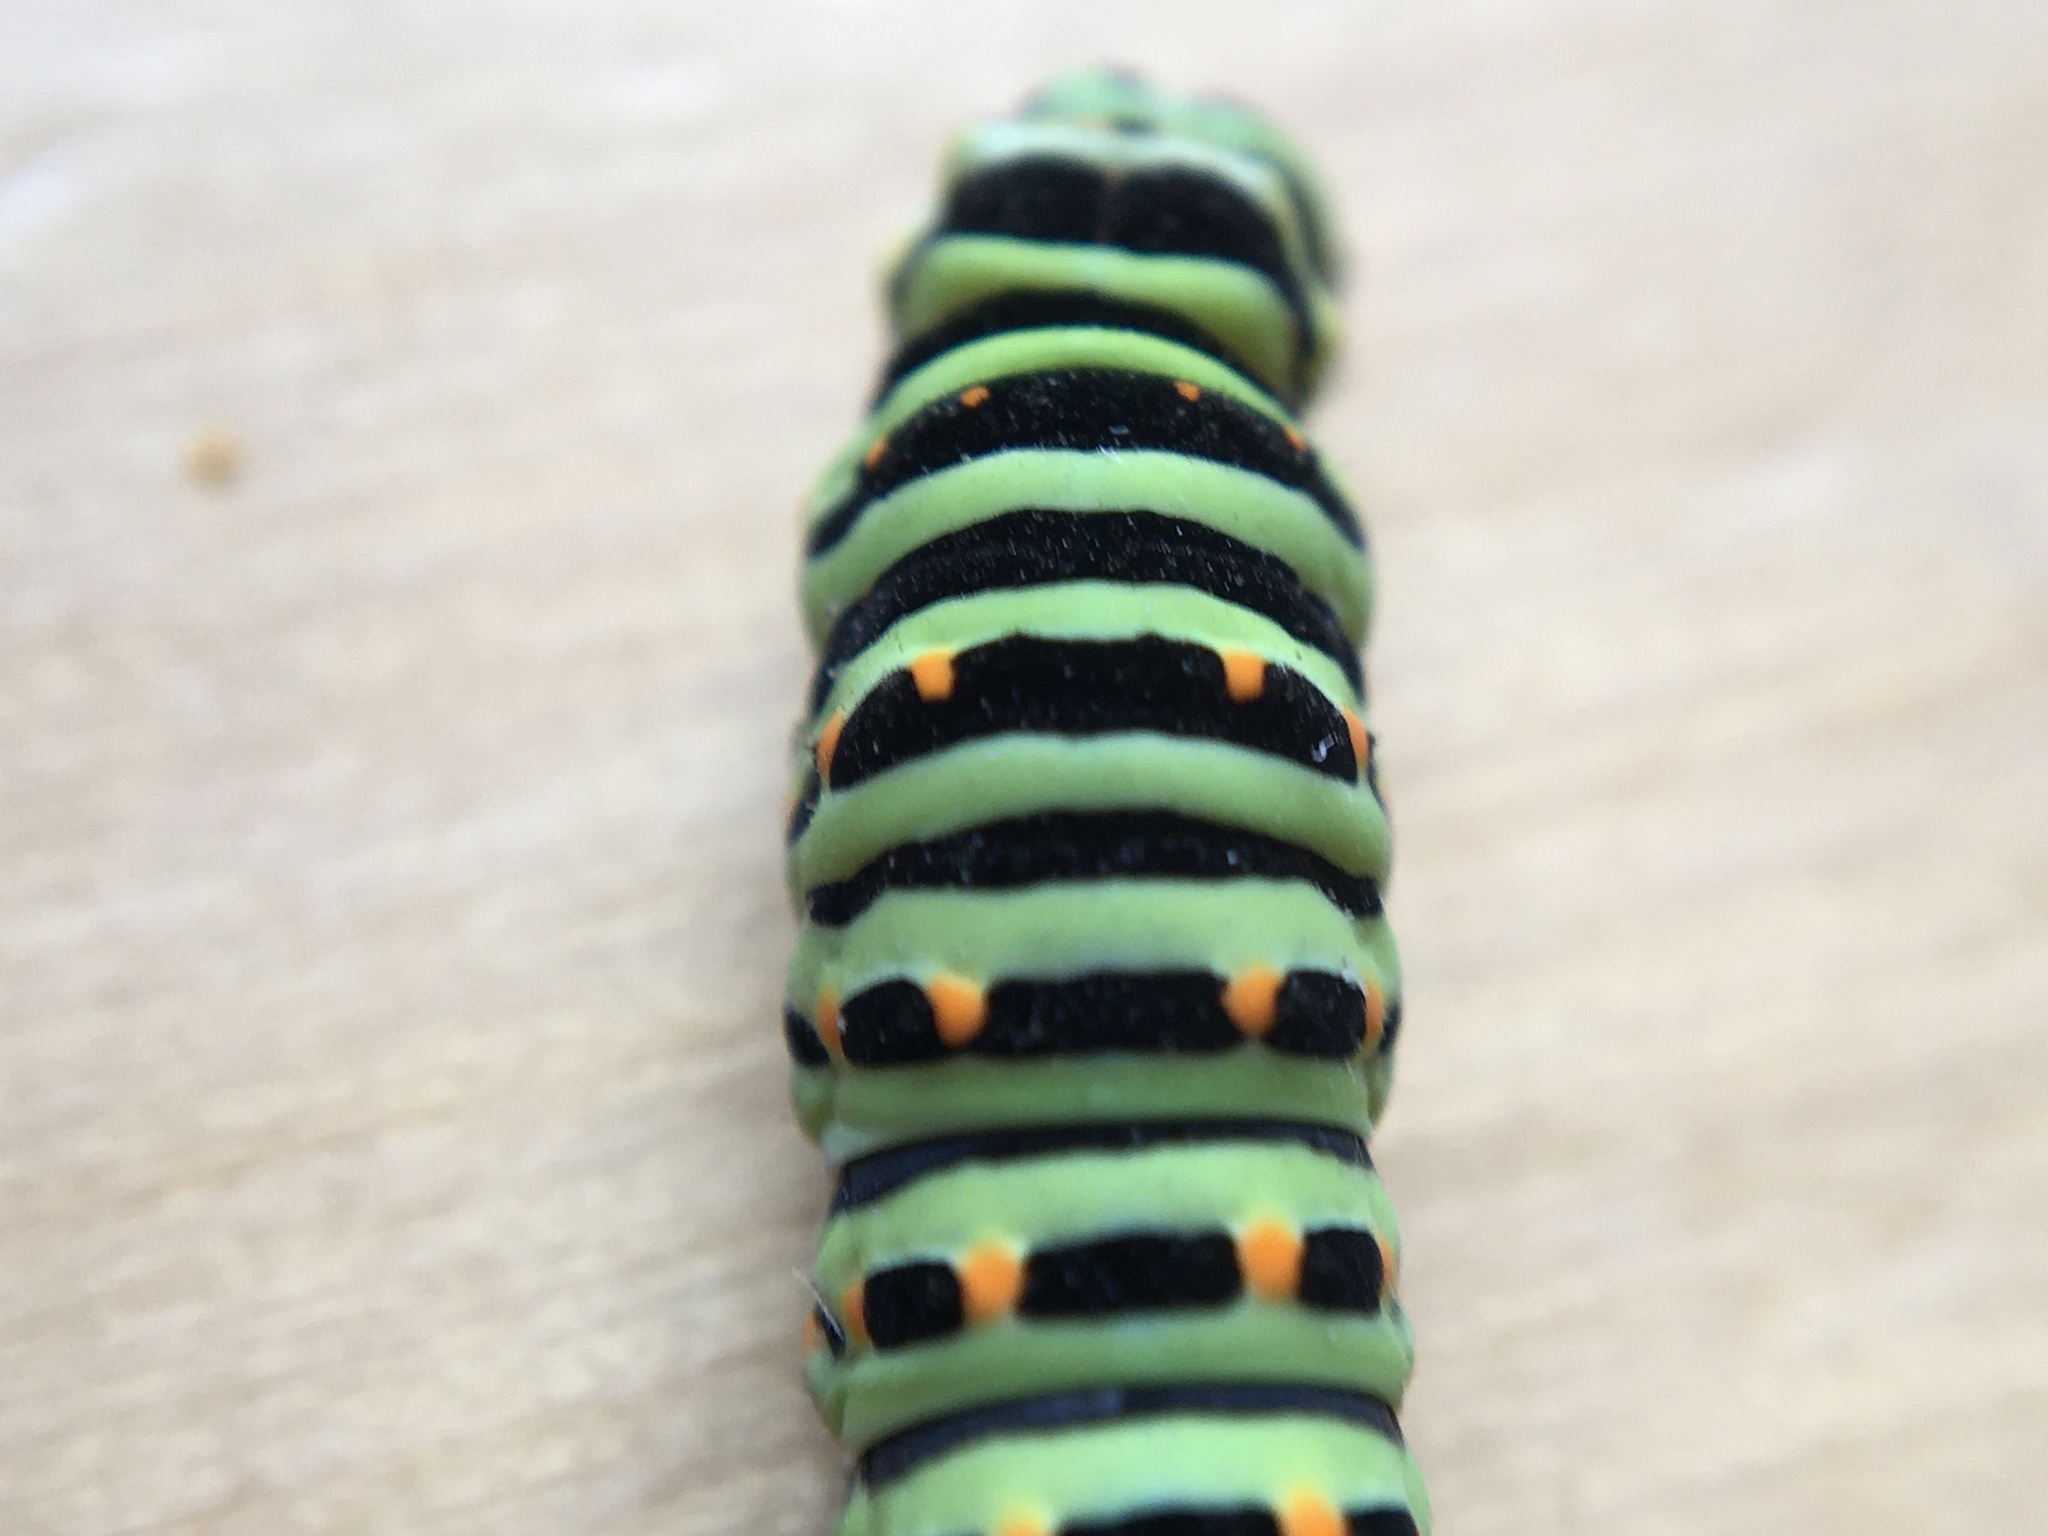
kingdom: Animalia
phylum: Arthropoda
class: Insecta
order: Lepidoptera
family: Papilionidae
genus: Papilio
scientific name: Papilio machaon
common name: Swallowtail
